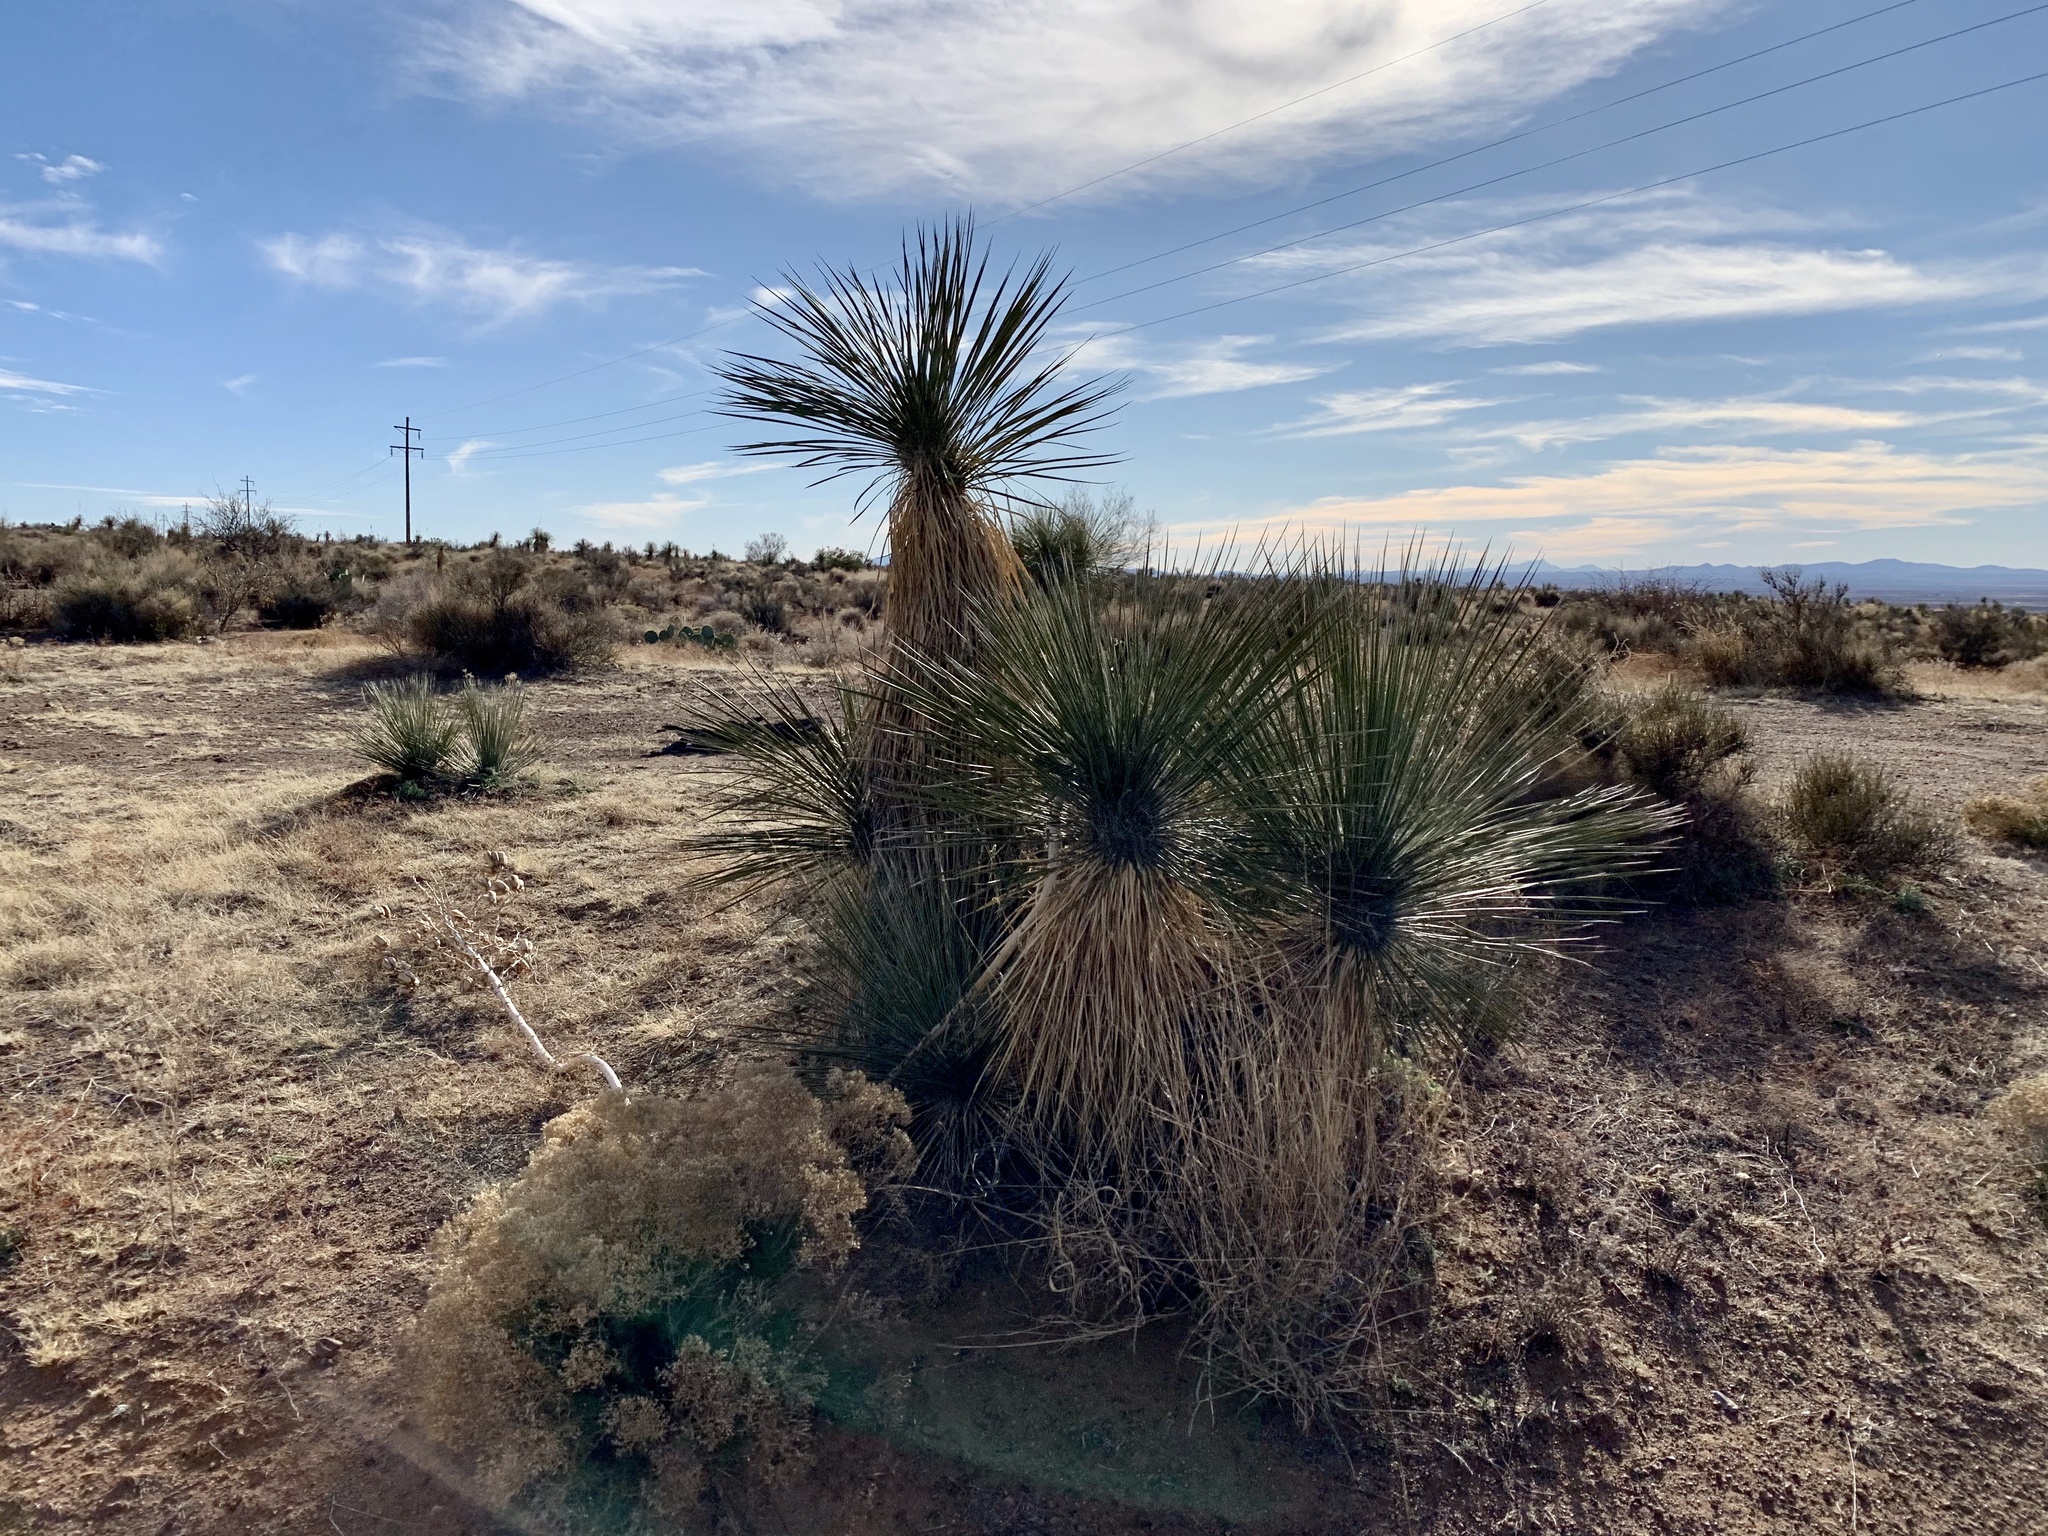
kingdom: Plantae
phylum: Tracheophyta
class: Liliopsida
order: Asparagales
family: Asparagaceae
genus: Yucca
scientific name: Yucca elata
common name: Palmella
